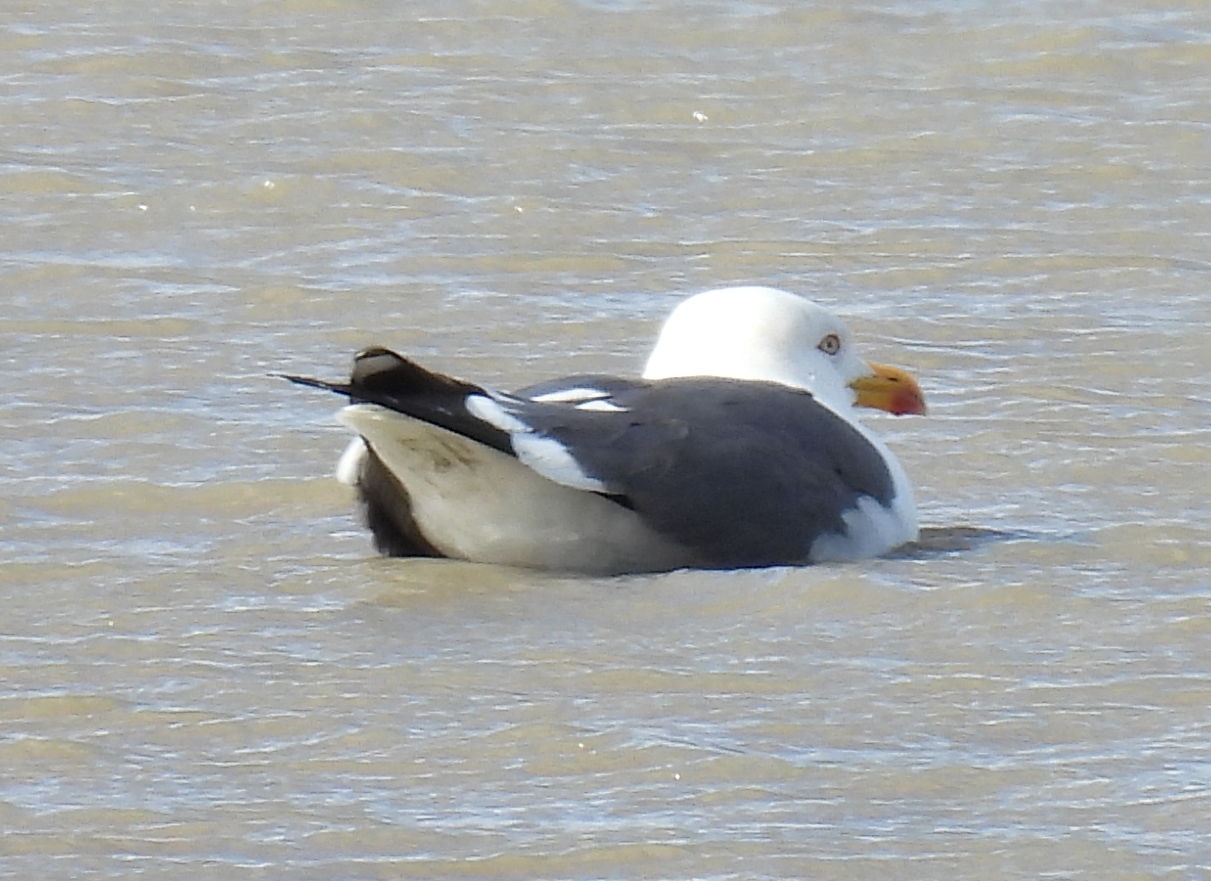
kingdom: Animalia
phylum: Chordata
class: Aves
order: Charadriiformes
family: Laridae
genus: Larus
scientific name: Larus fuscus
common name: Lesser black-backed gull
